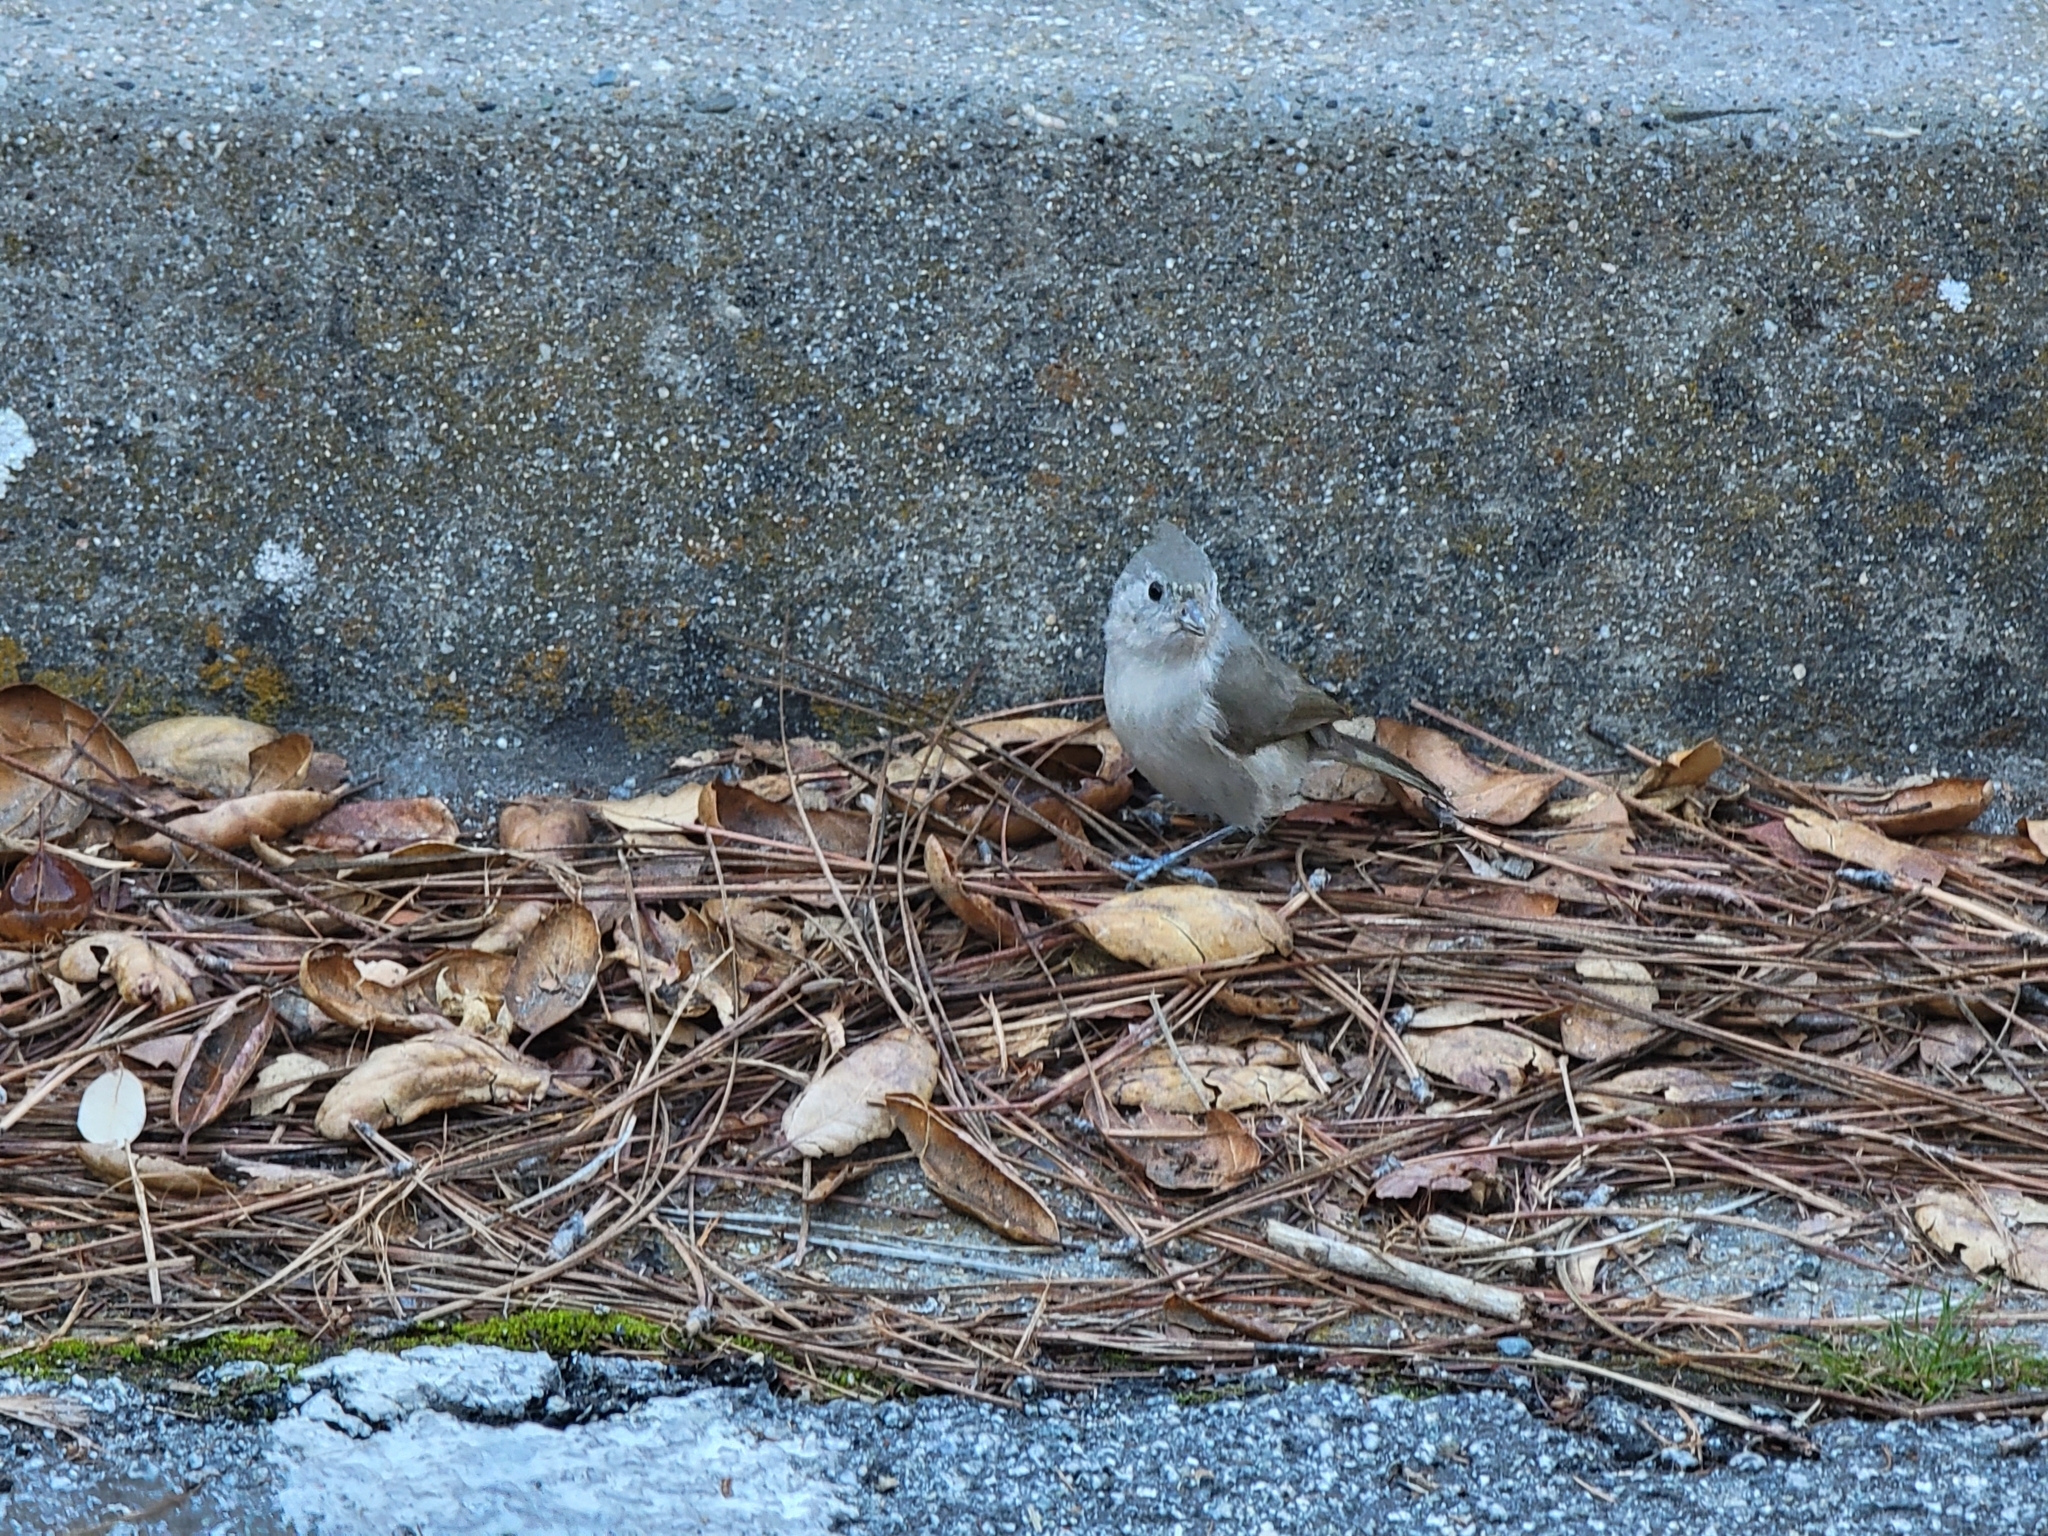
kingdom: Animalia
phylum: Chordata
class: Aves
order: Passeriformes
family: Paridae
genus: Baeolophus
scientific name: Baeolophus inornatus
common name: Oak titmouse
